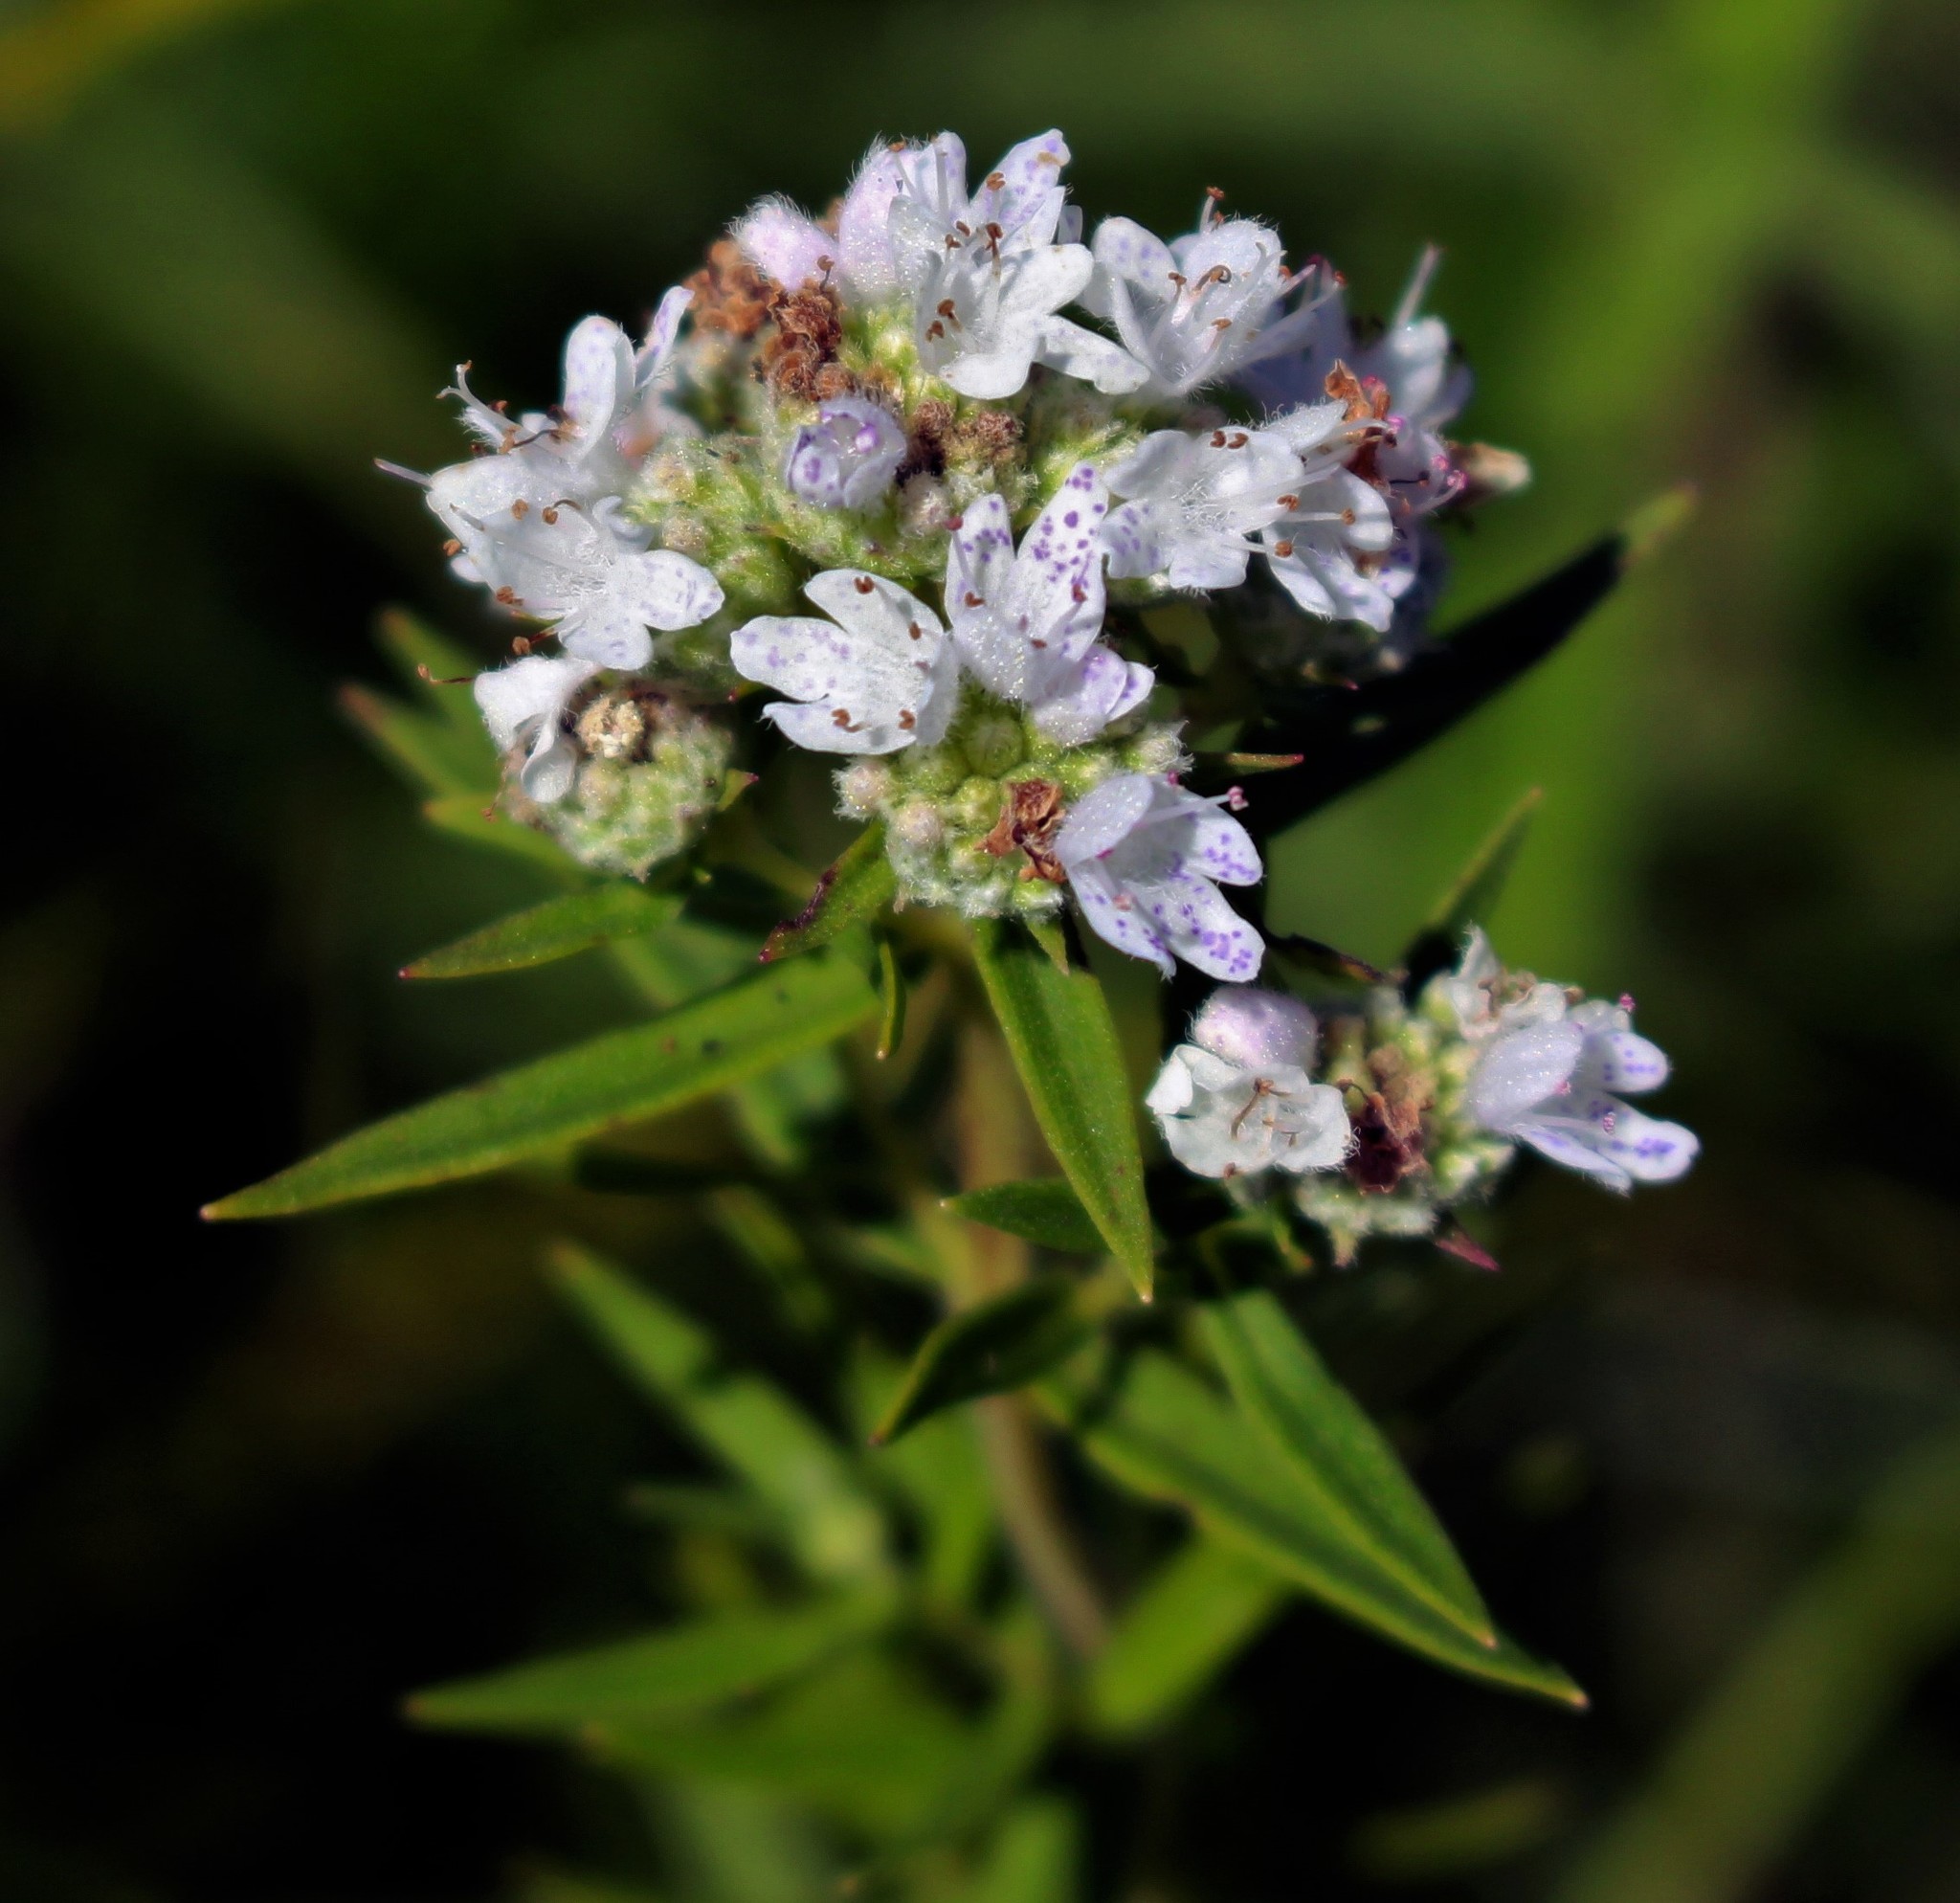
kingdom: Plantae
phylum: Tracheophyta
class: Magnoliopsida
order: Lamiales
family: Lamiaceae
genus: Pycnanthemum
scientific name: Pycnanthemum virginianum
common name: Virginia mountain-mint
